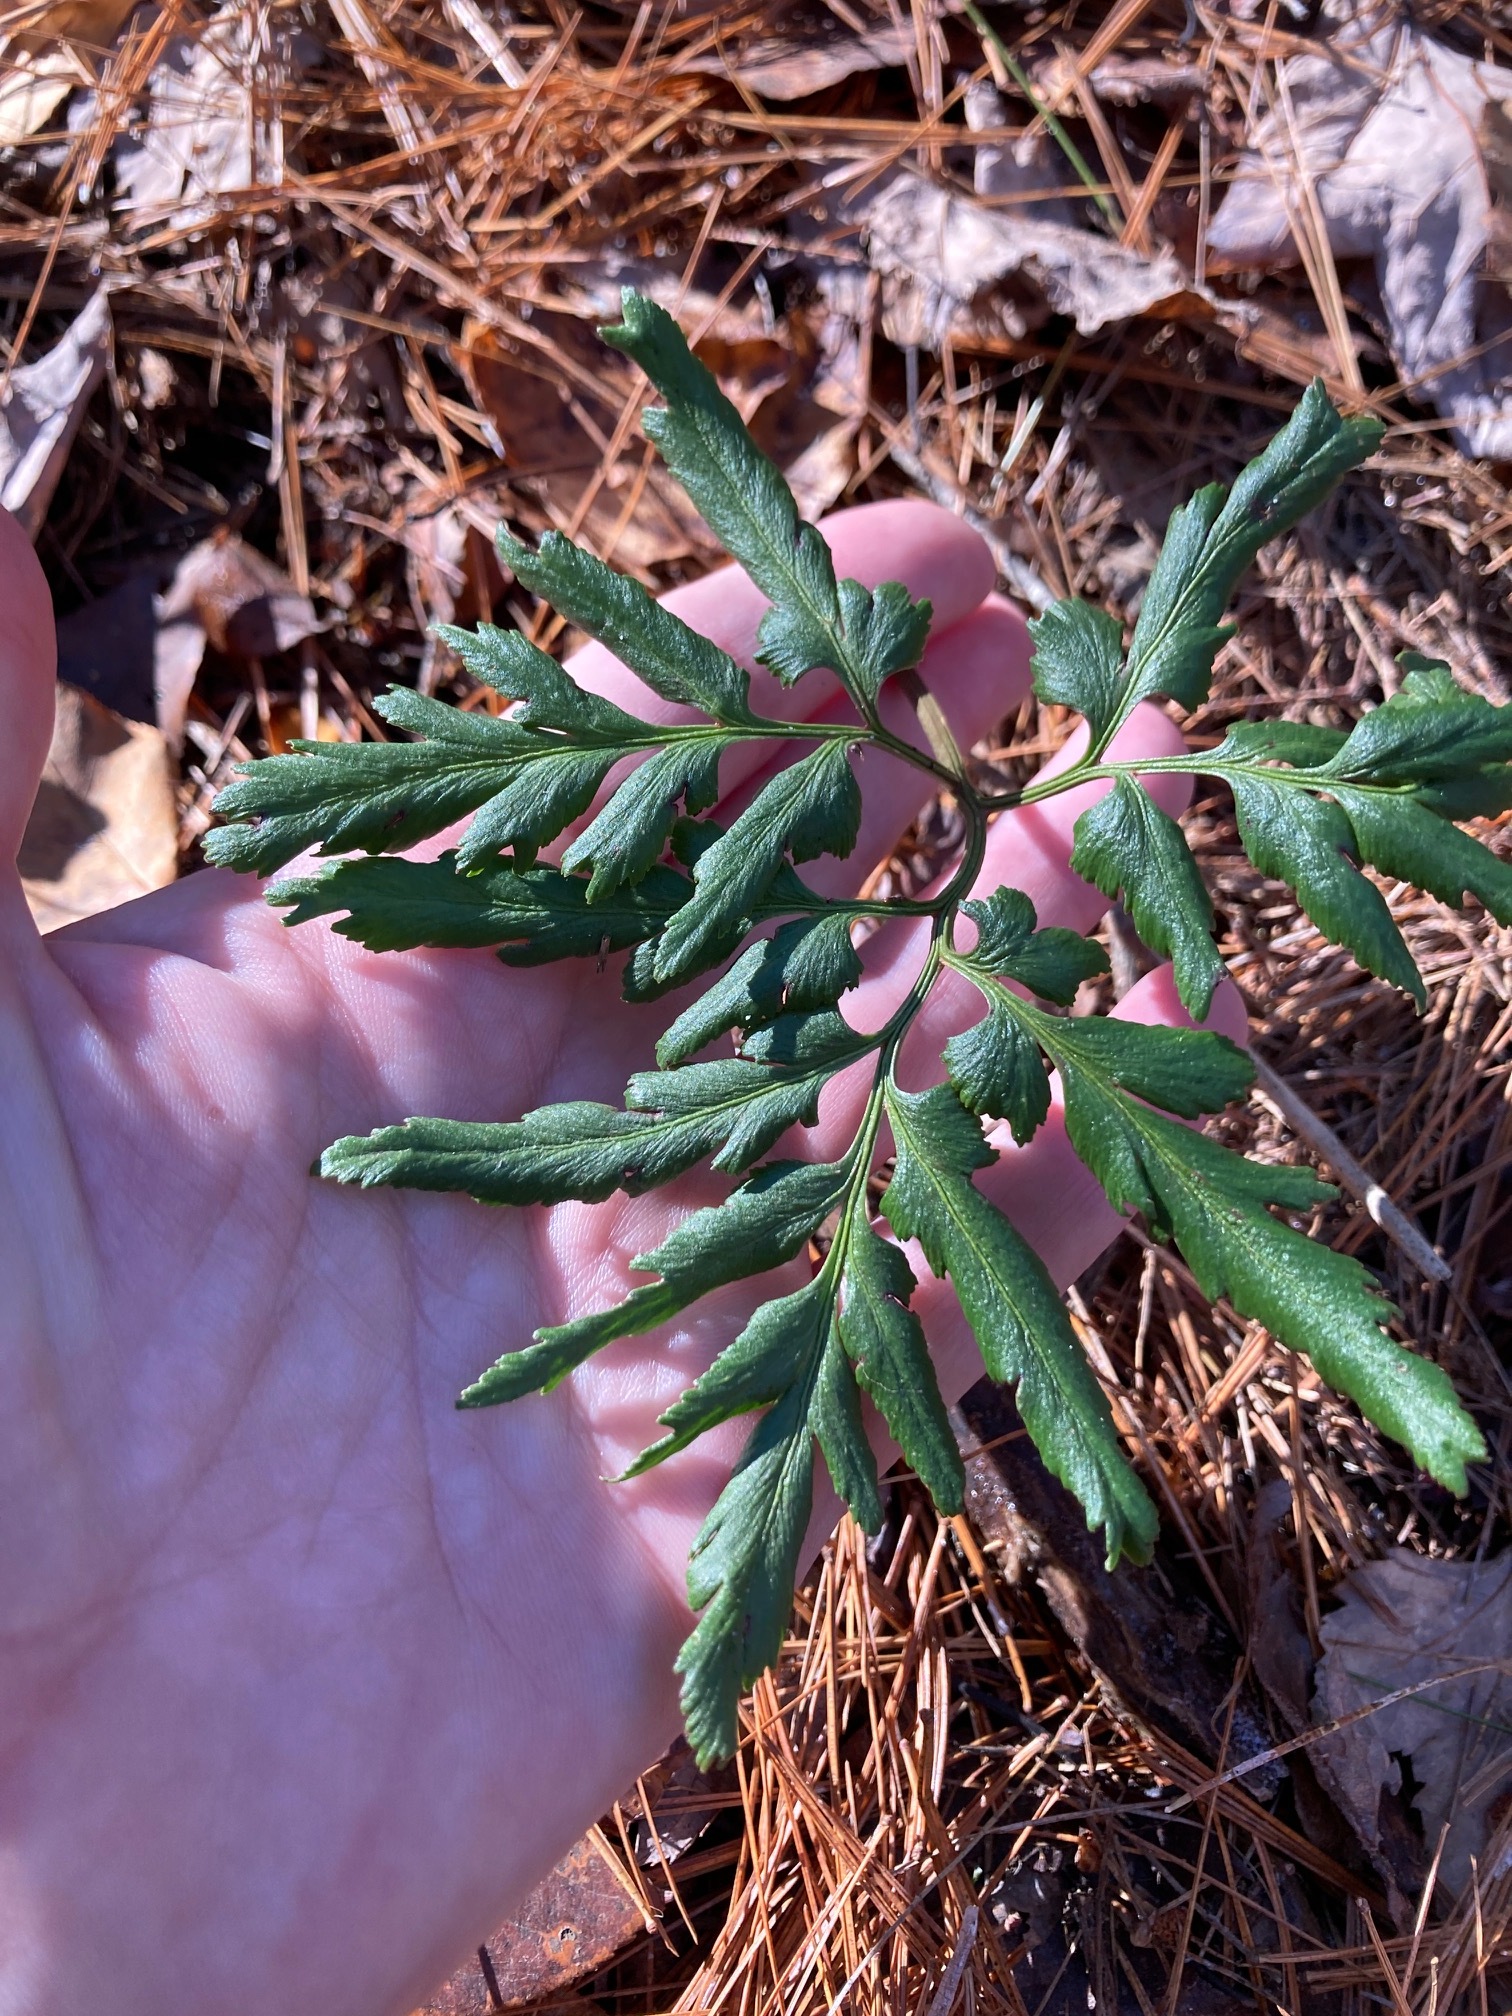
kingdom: Plantae
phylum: Tracheophyta
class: Polypodiopsida
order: Ophioglossales
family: Ophioglossaceae
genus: Sceptridium
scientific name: Sceptridium dissectum
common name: Cut-leaved grapefern
